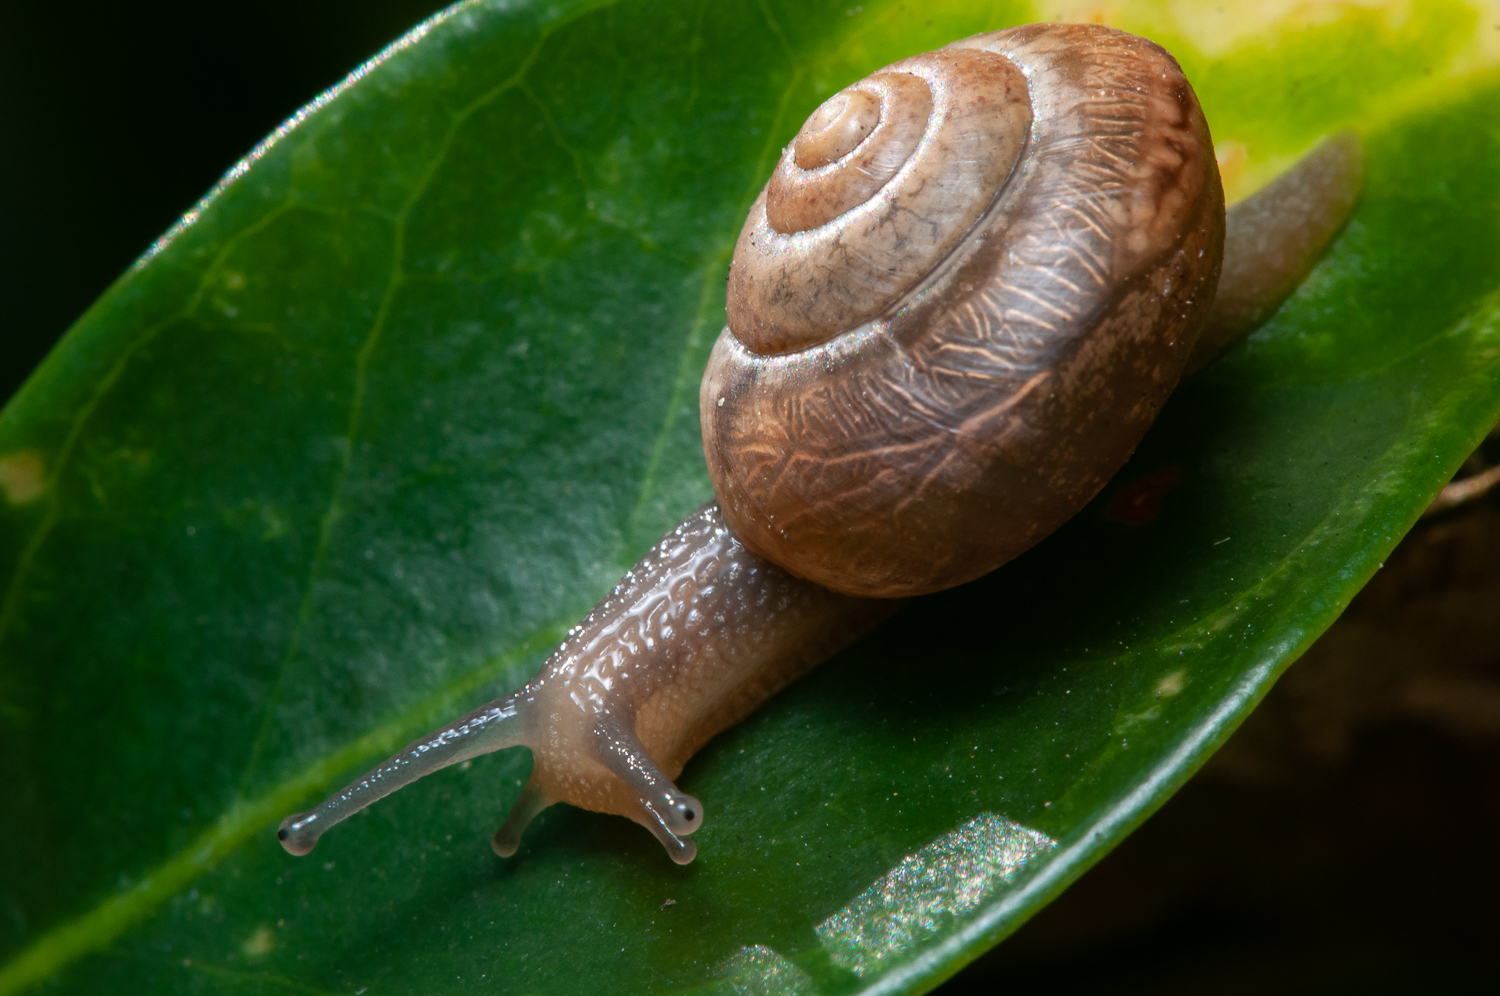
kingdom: Animalia
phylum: Mollusca
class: Gastropoda
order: Stylommatophora
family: Camaenidae
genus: Bradybaena
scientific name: Bradybaena similaris
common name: Asian trampsnail
